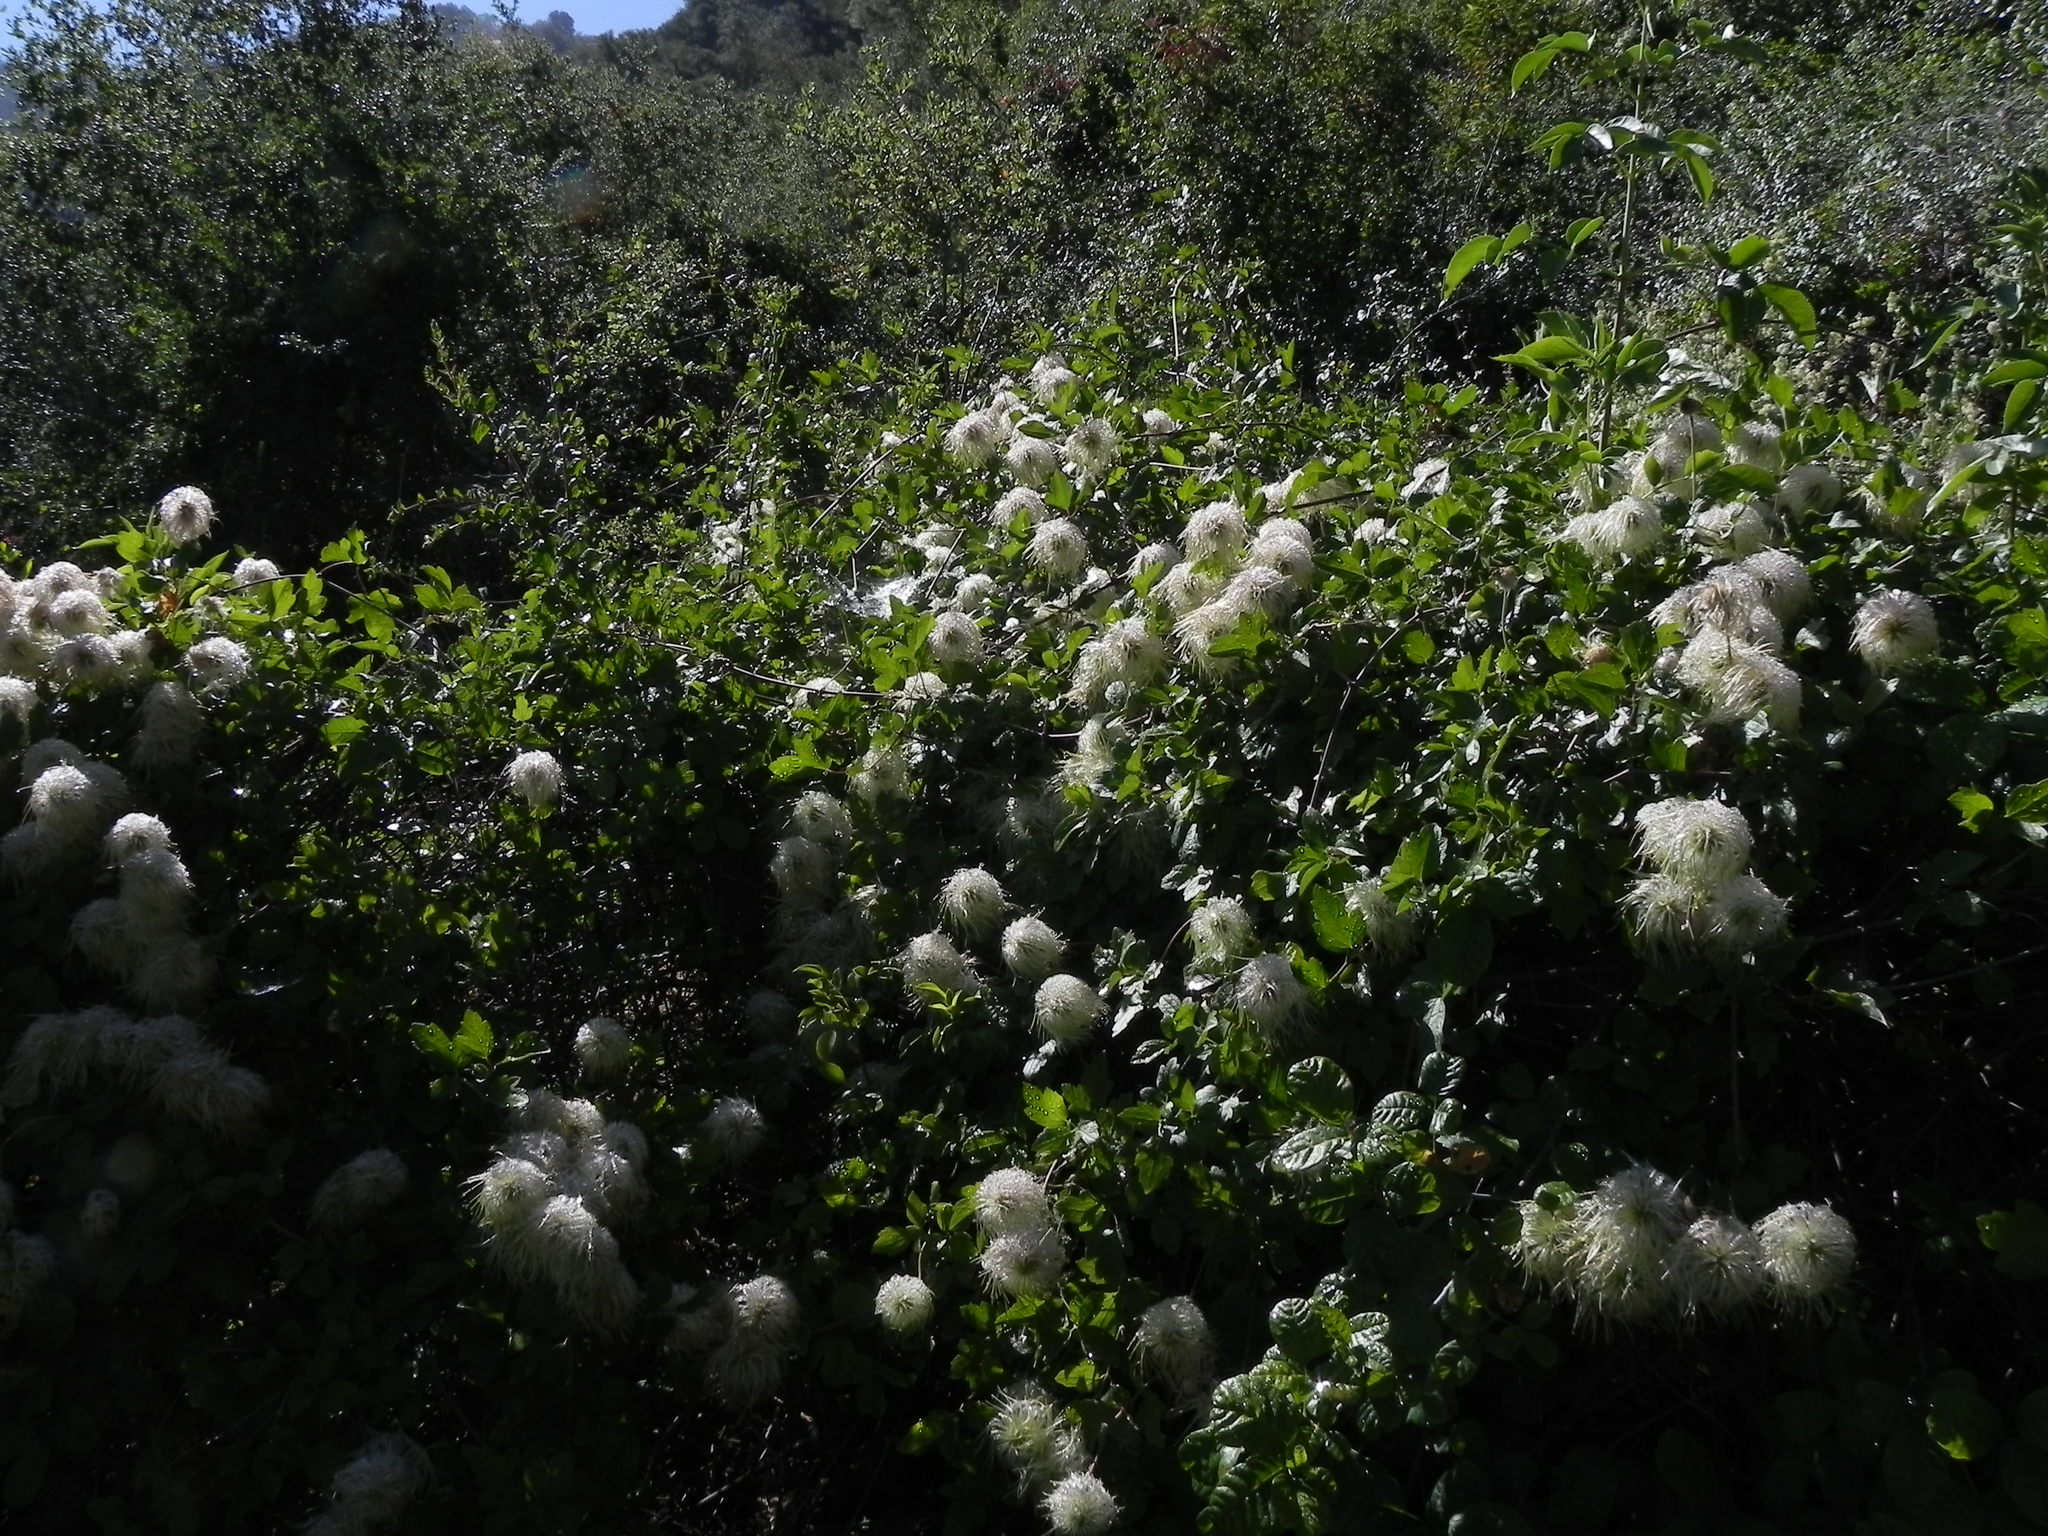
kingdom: Plantae
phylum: Tracheophyta
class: Magnoliopsida
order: Ranunculales
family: Ranunculaceae
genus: Clematis
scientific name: Clematis lasiantha
